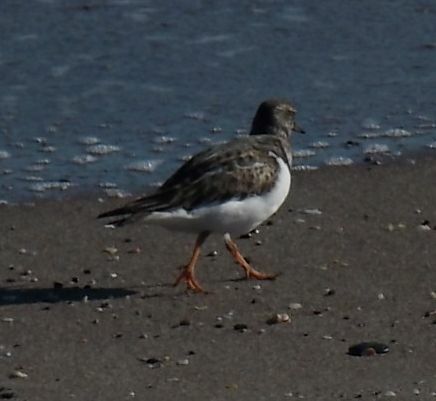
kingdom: Animalia
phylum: Chordata
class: Aves
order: Charadriiformes
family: Scolopacidae
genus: Arenaria
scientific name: Arenaria interpres
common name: Ruddy turnstone
